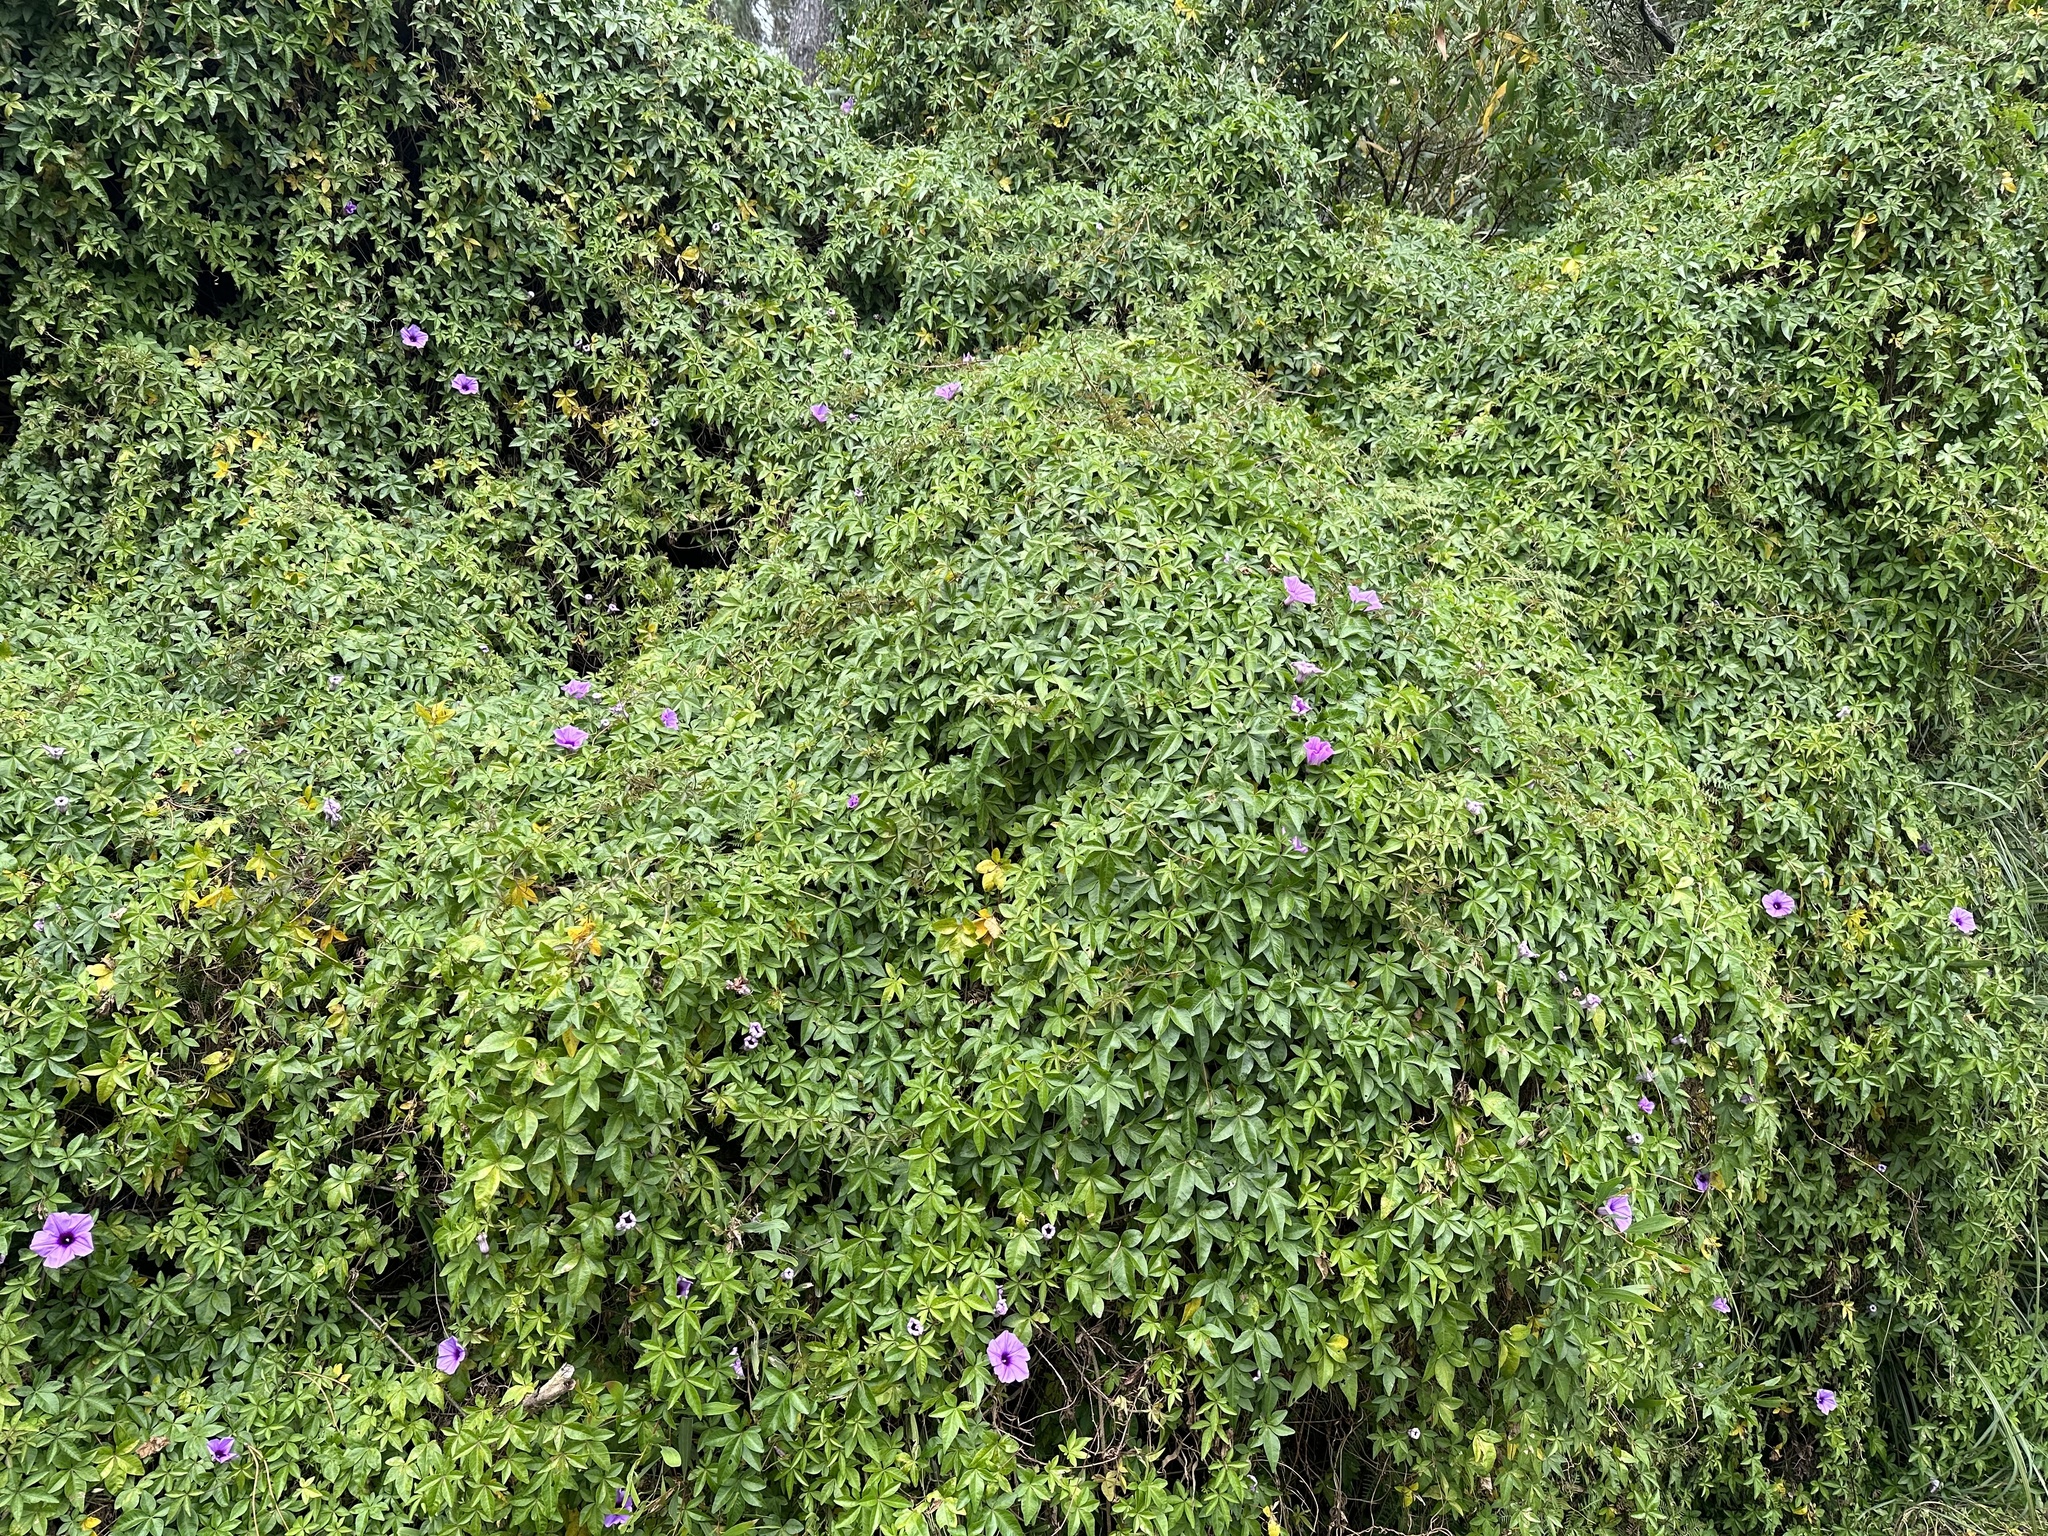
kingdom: Plantae
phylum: Tracheophyta
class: Magnoliopsida
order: Solanales
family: Convolvulaceae
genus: Ipomoea
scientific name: Ipomoea cairica
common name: Mile a minute vine
